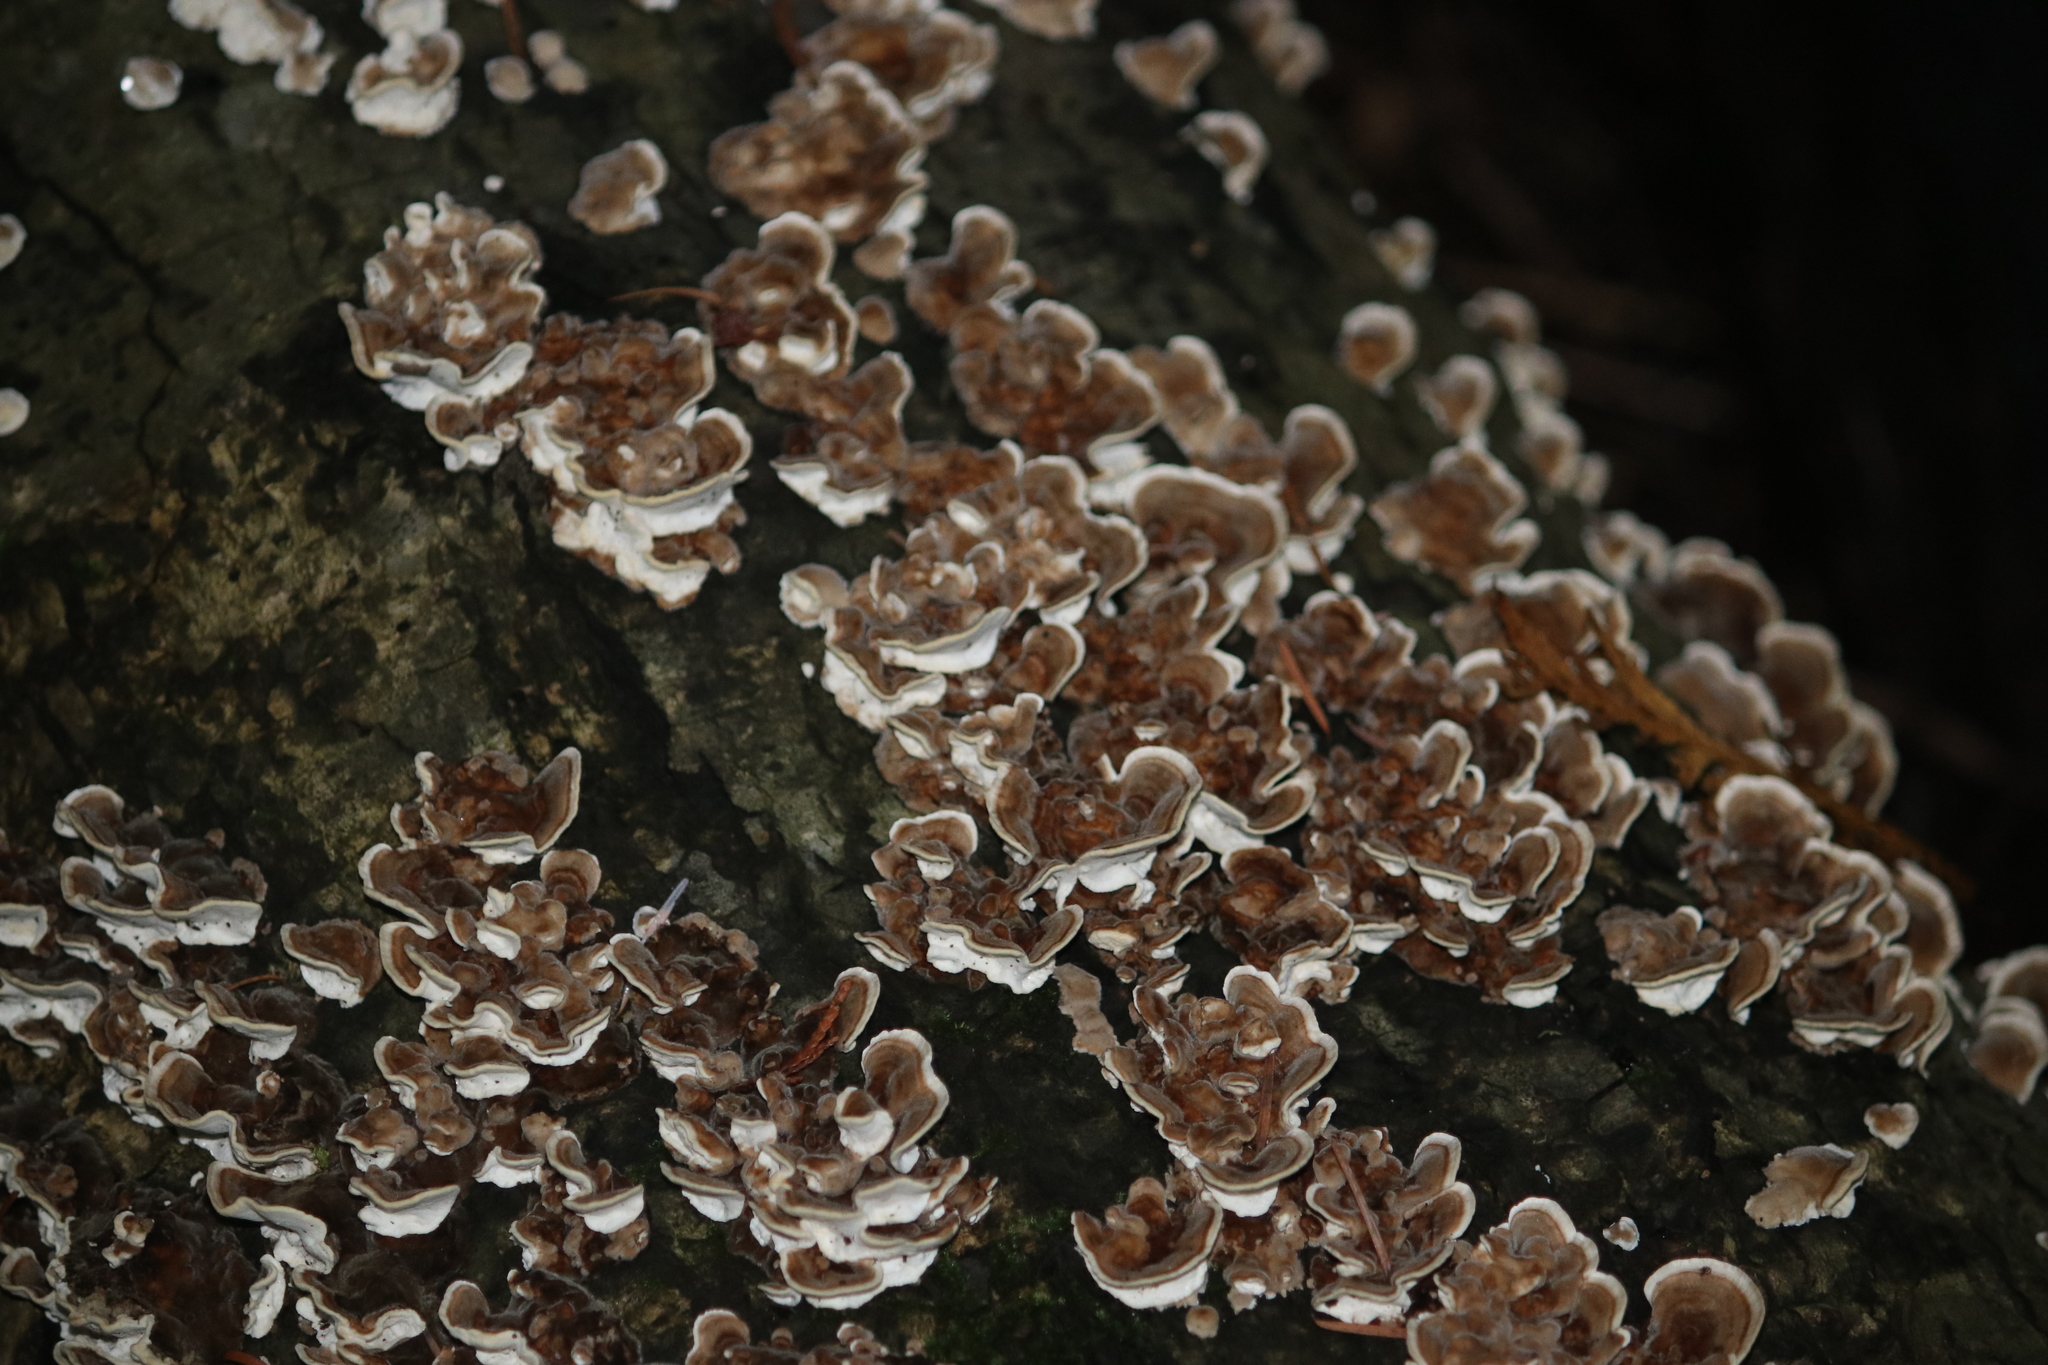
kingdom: Fungi
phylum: Basidiomycota
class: Agaricomycetes
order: Polyporales
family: Polyporaceae
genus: Trametes
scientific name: Trametes versicolor
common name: Turkeytail
